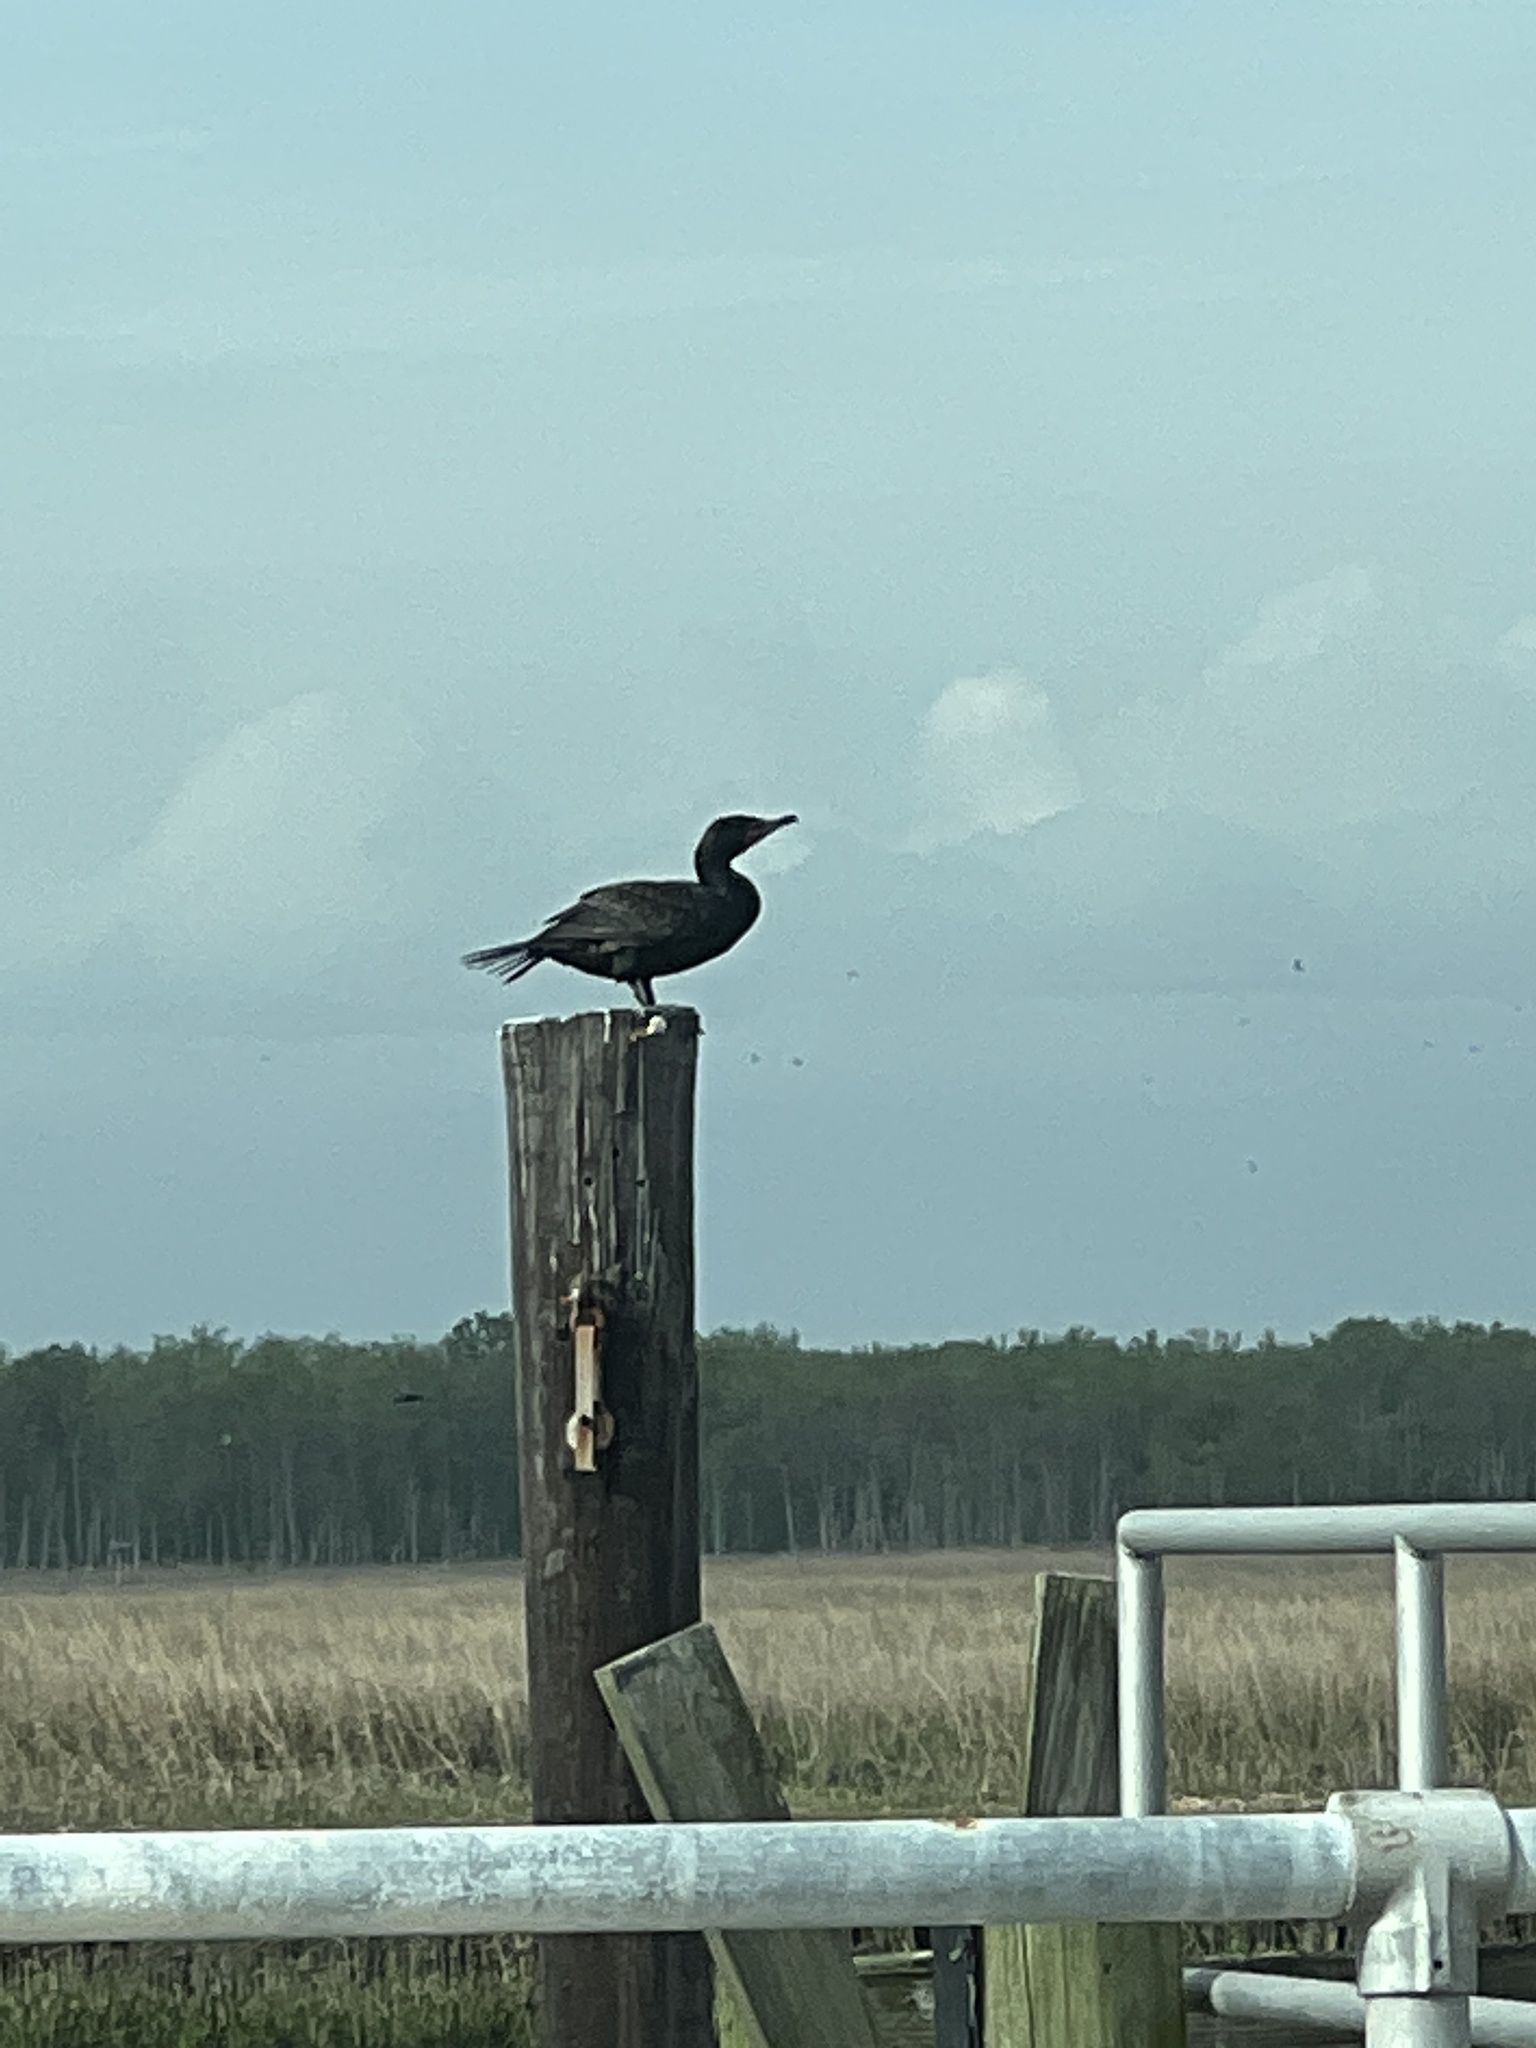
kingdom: Animalia
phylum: Chordata
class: Aves
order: Suliformes
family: Phalacrocoracidae
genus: Phalacrocorax
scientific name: Phalacrocorax auritus
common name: Double-crested cormorant
